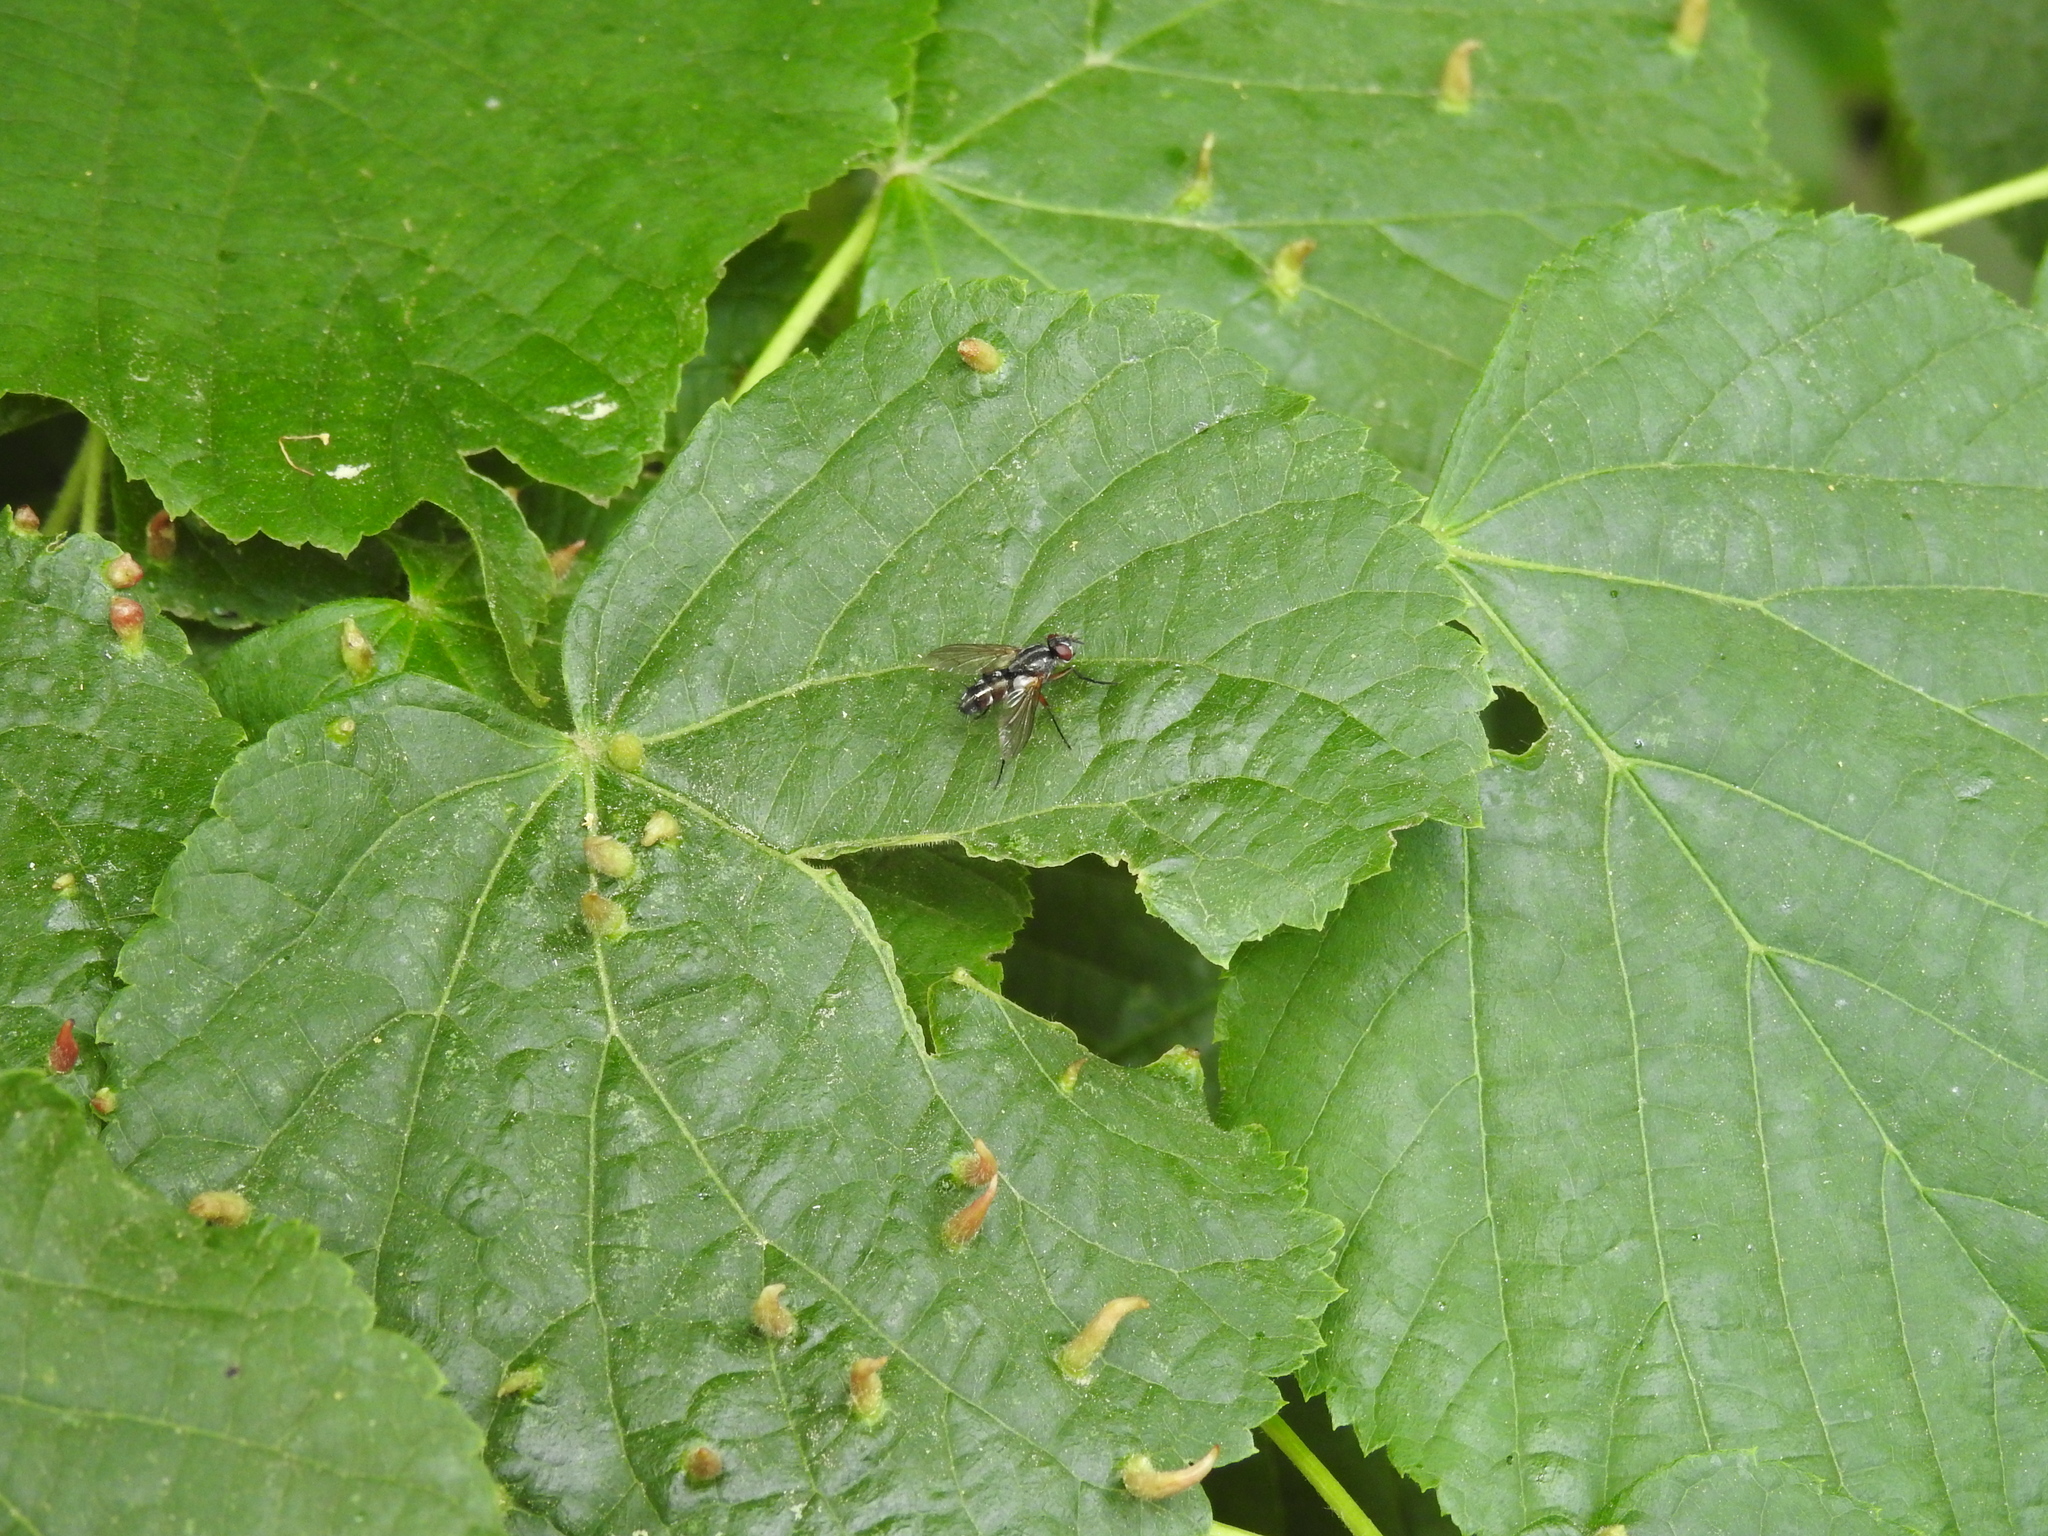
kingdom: Animalia
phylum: Arthropoda
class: Arachnida
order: Trombidiformes
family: Eriophyidae
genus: Eriophyes
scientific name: Eriophyes tiliae
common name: Red nail gall mite
